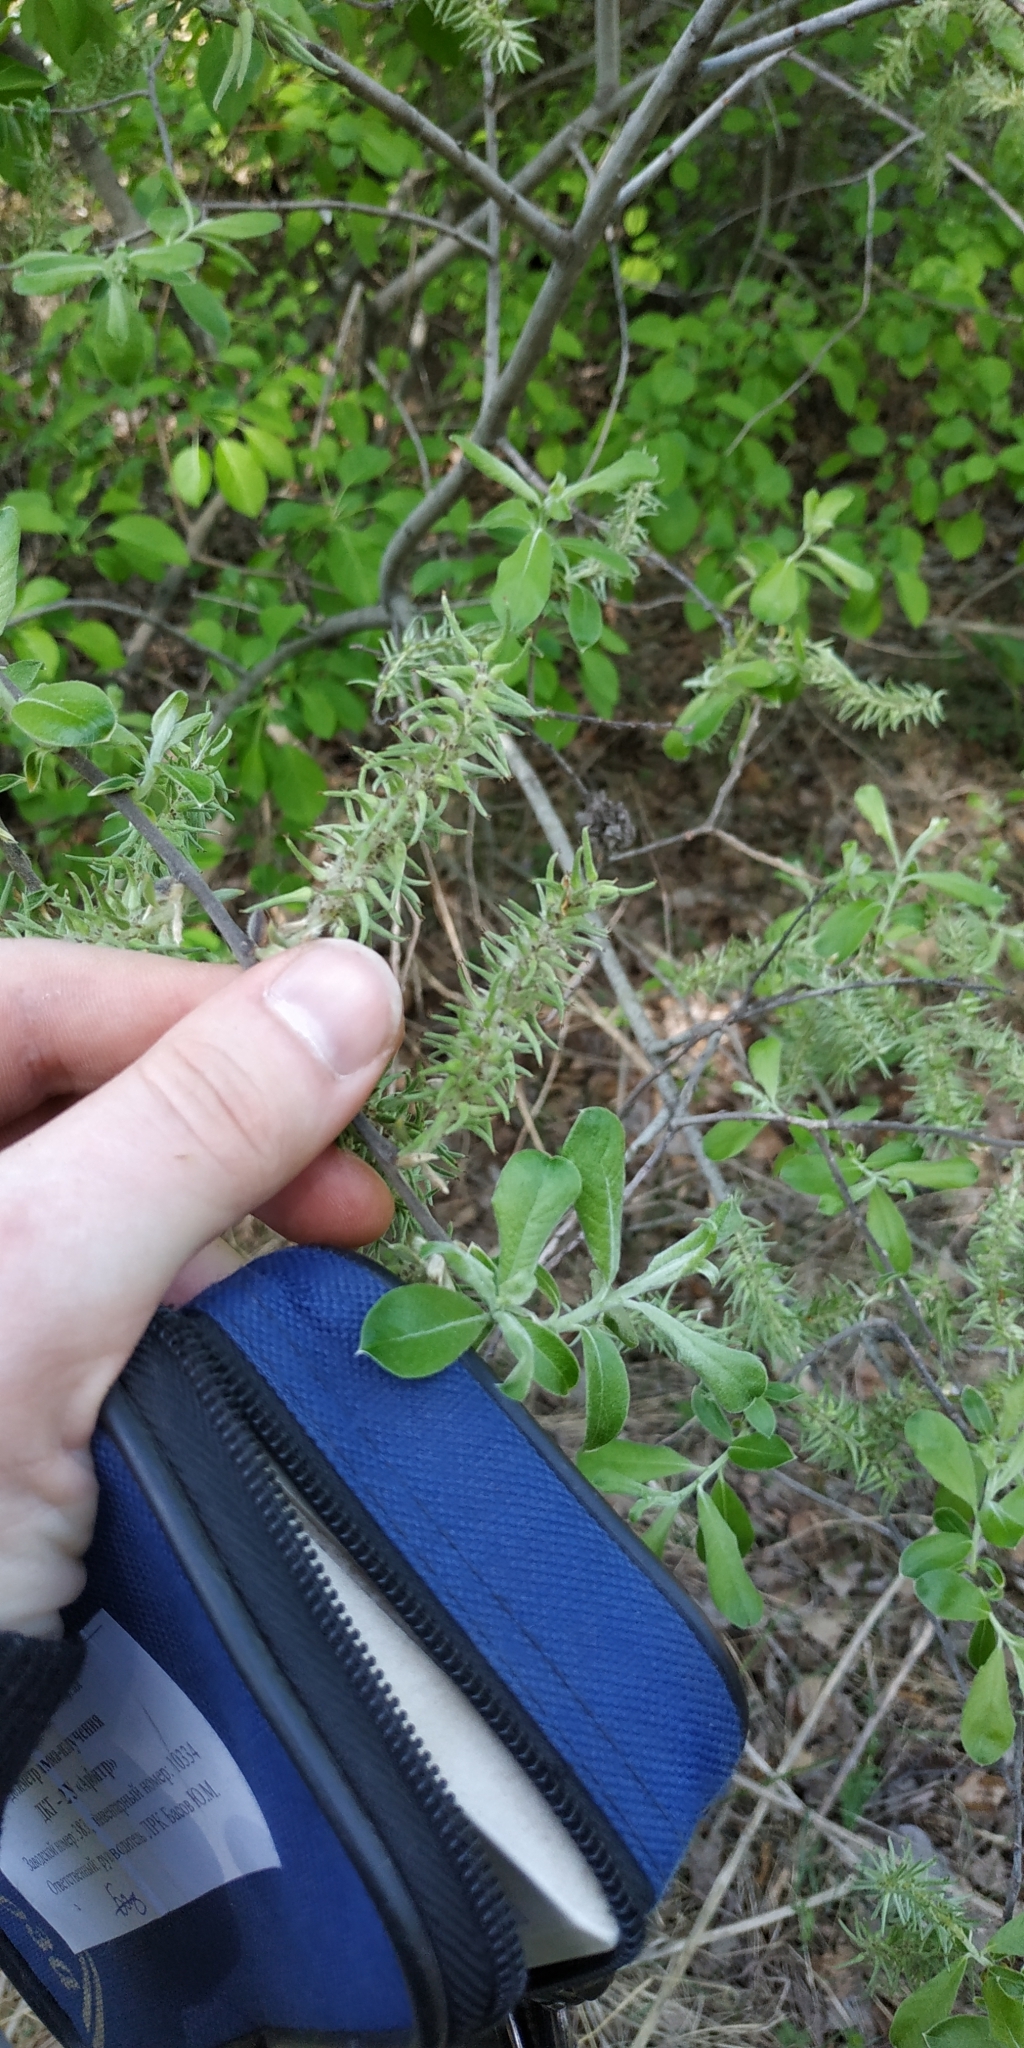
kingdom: Plantae
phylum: Tracheophyta
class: Magnoliopsida
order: Malpighiales
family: Salicaceae
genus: Salix
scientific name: Salix cinerea
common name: Common sallow
